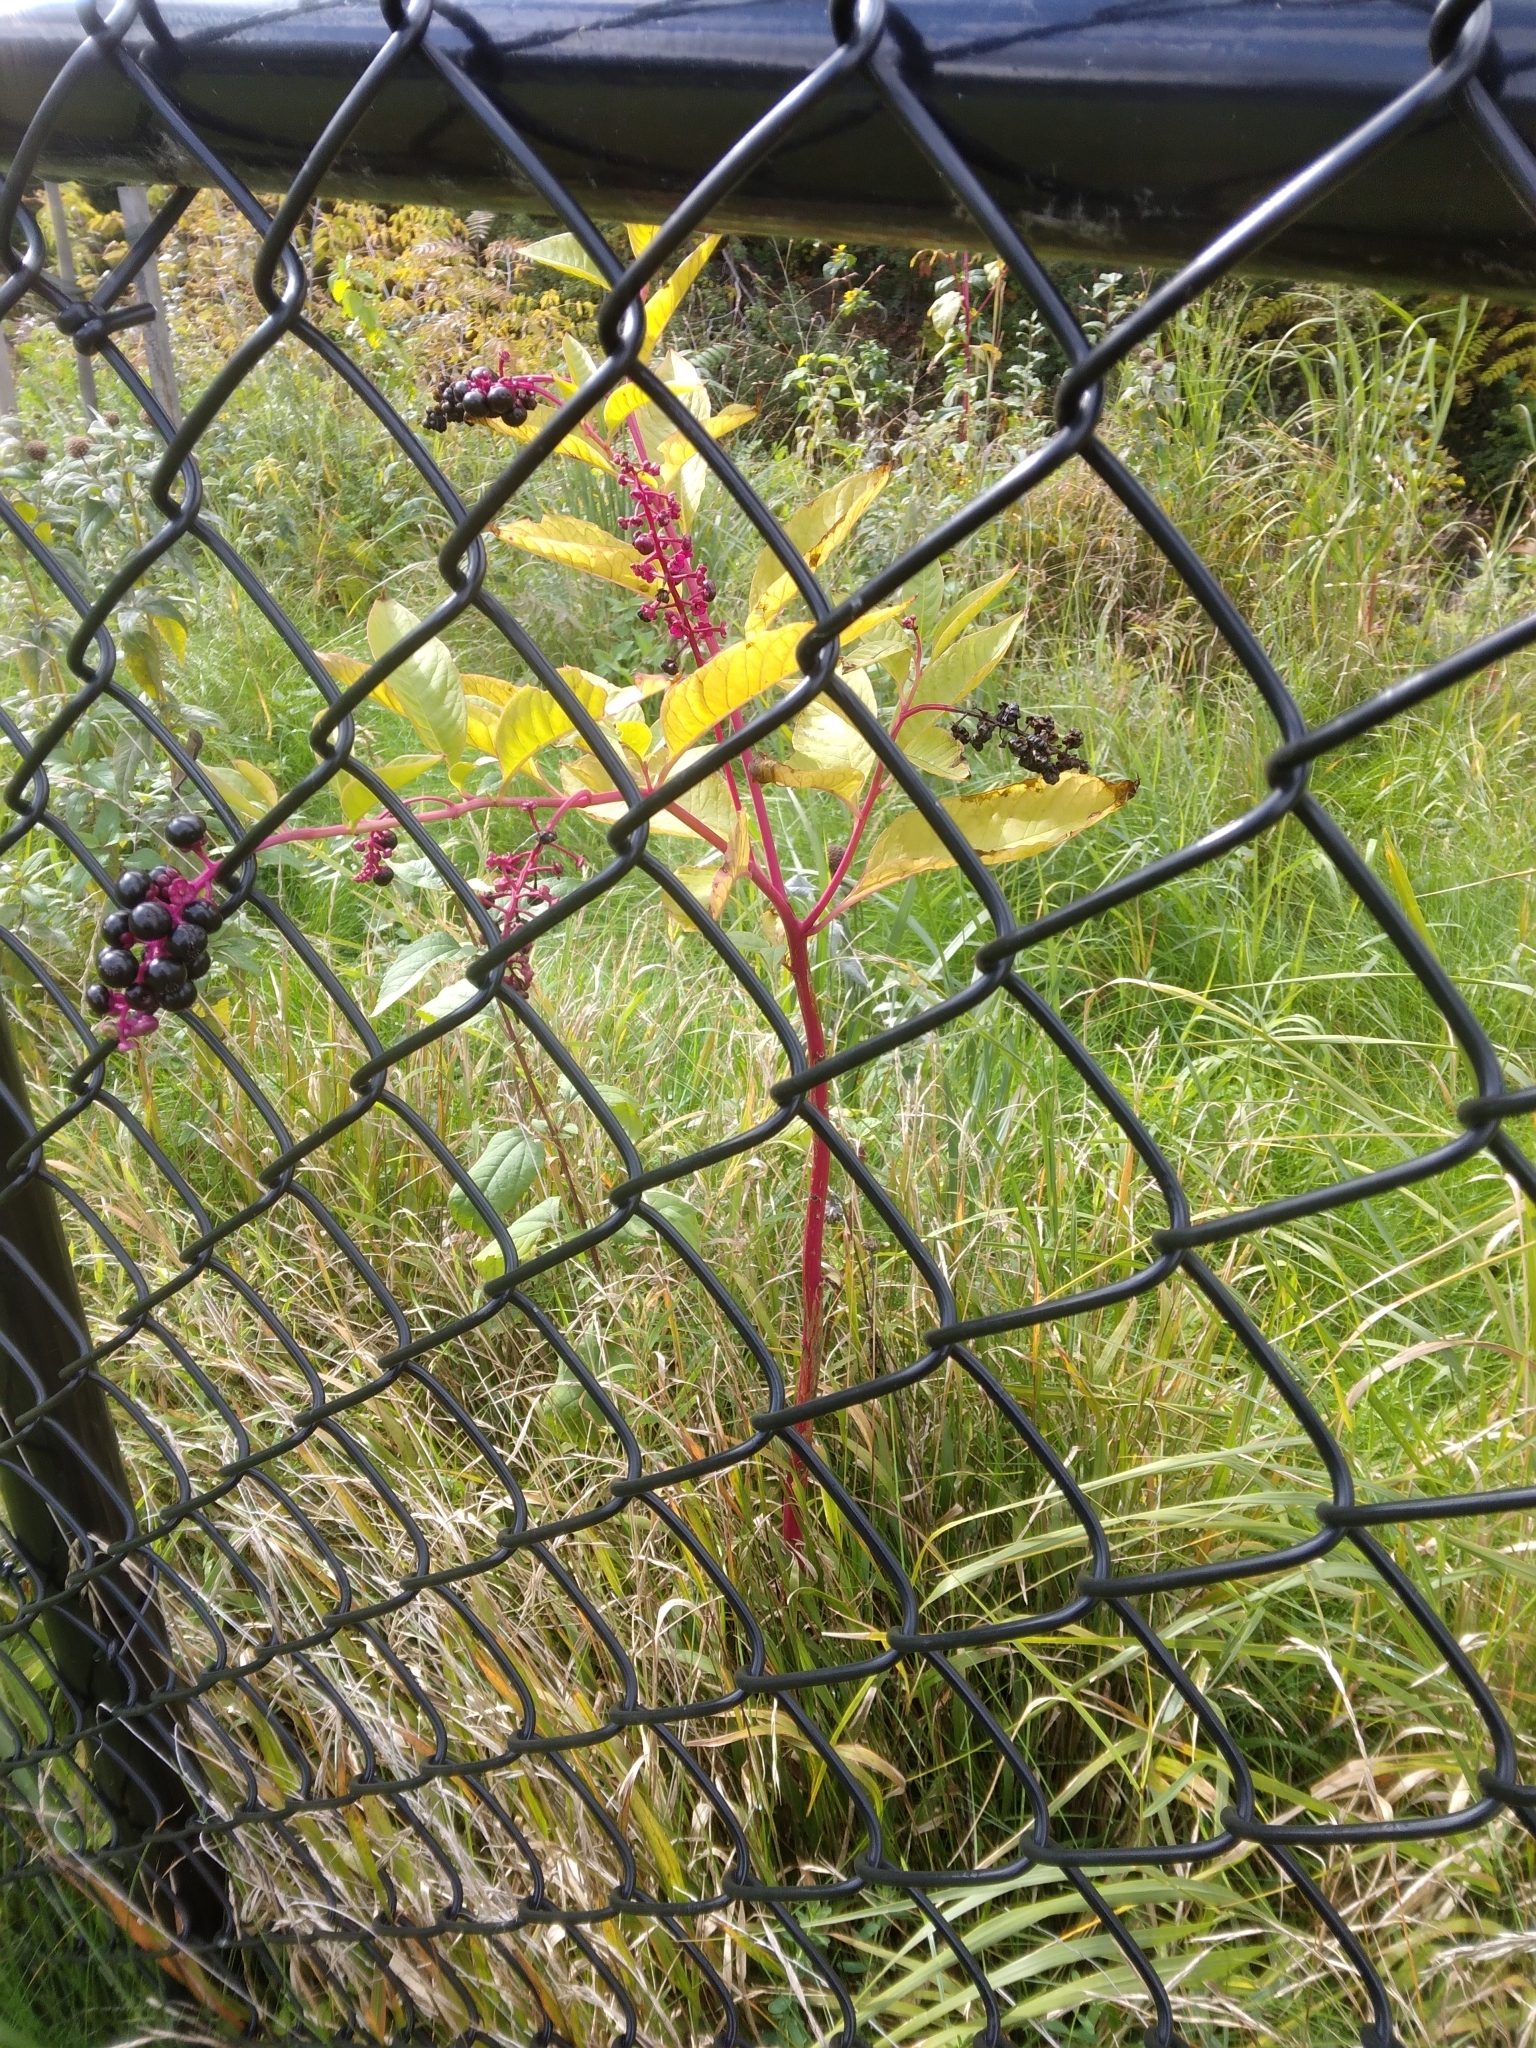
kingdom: Plantae
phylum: Tracheophyta
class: Magnoliopsida
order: Caryophyllales
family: Phytolaccaceae
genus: Phytolacca
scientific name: Phytolacca americana
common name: American pokeweed
